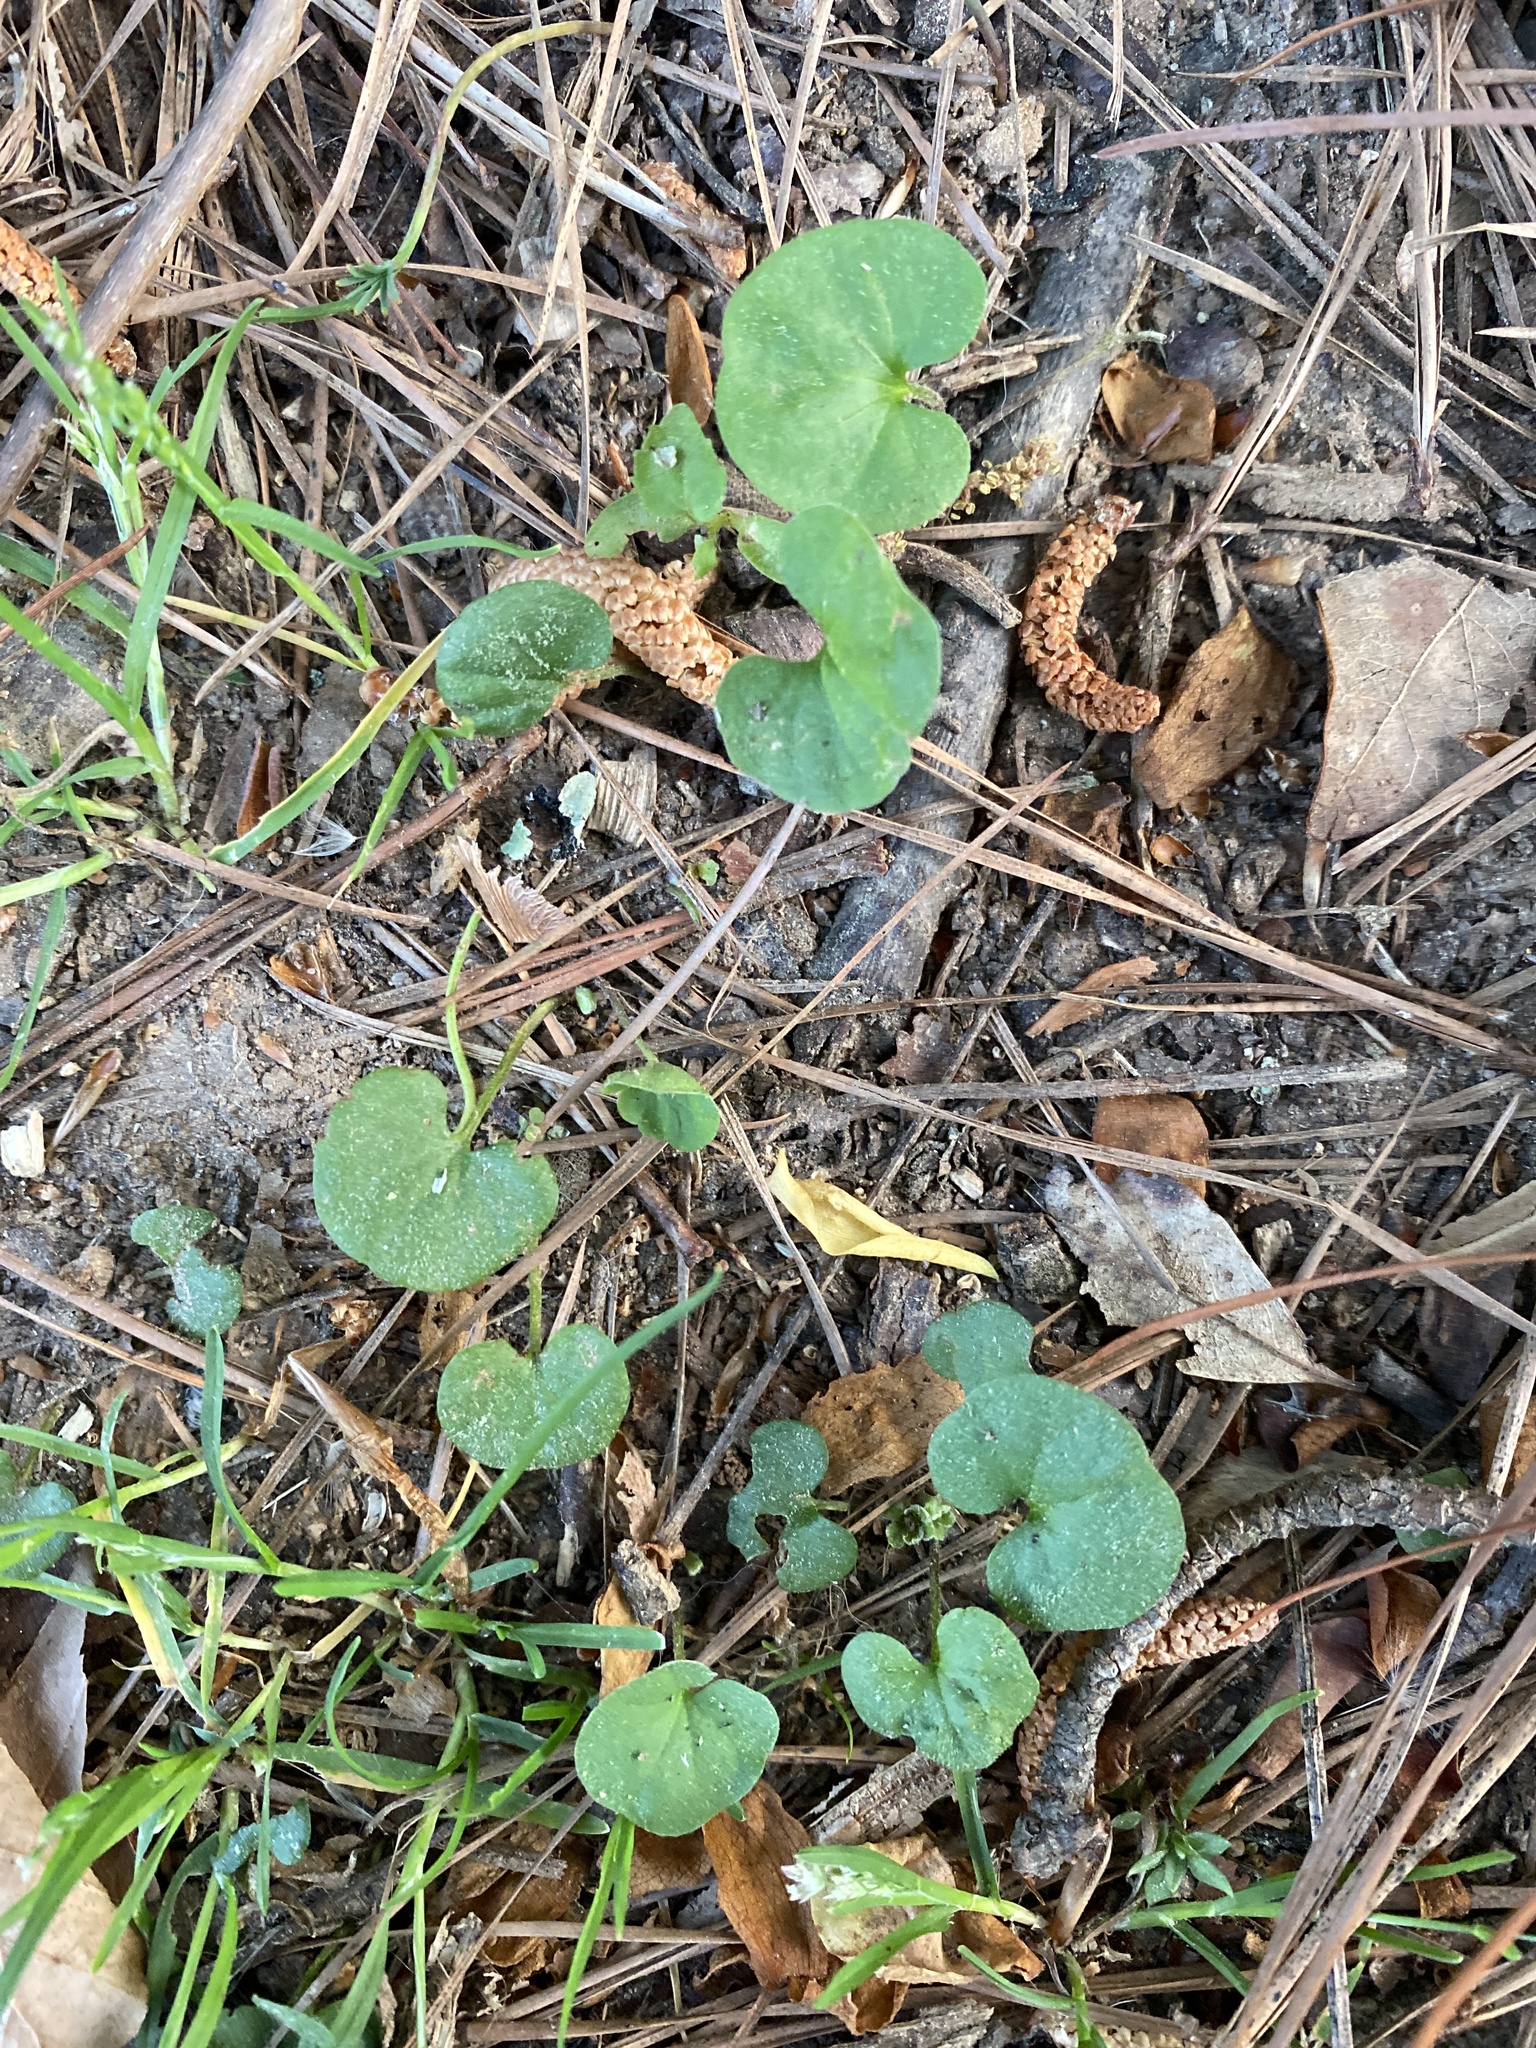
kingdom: Plantae
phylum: Tracheophyta
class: Magnoliopsida
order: Solanales
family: Convolvulaceae
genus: Dichondra
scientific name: Dichondra carolinensis
